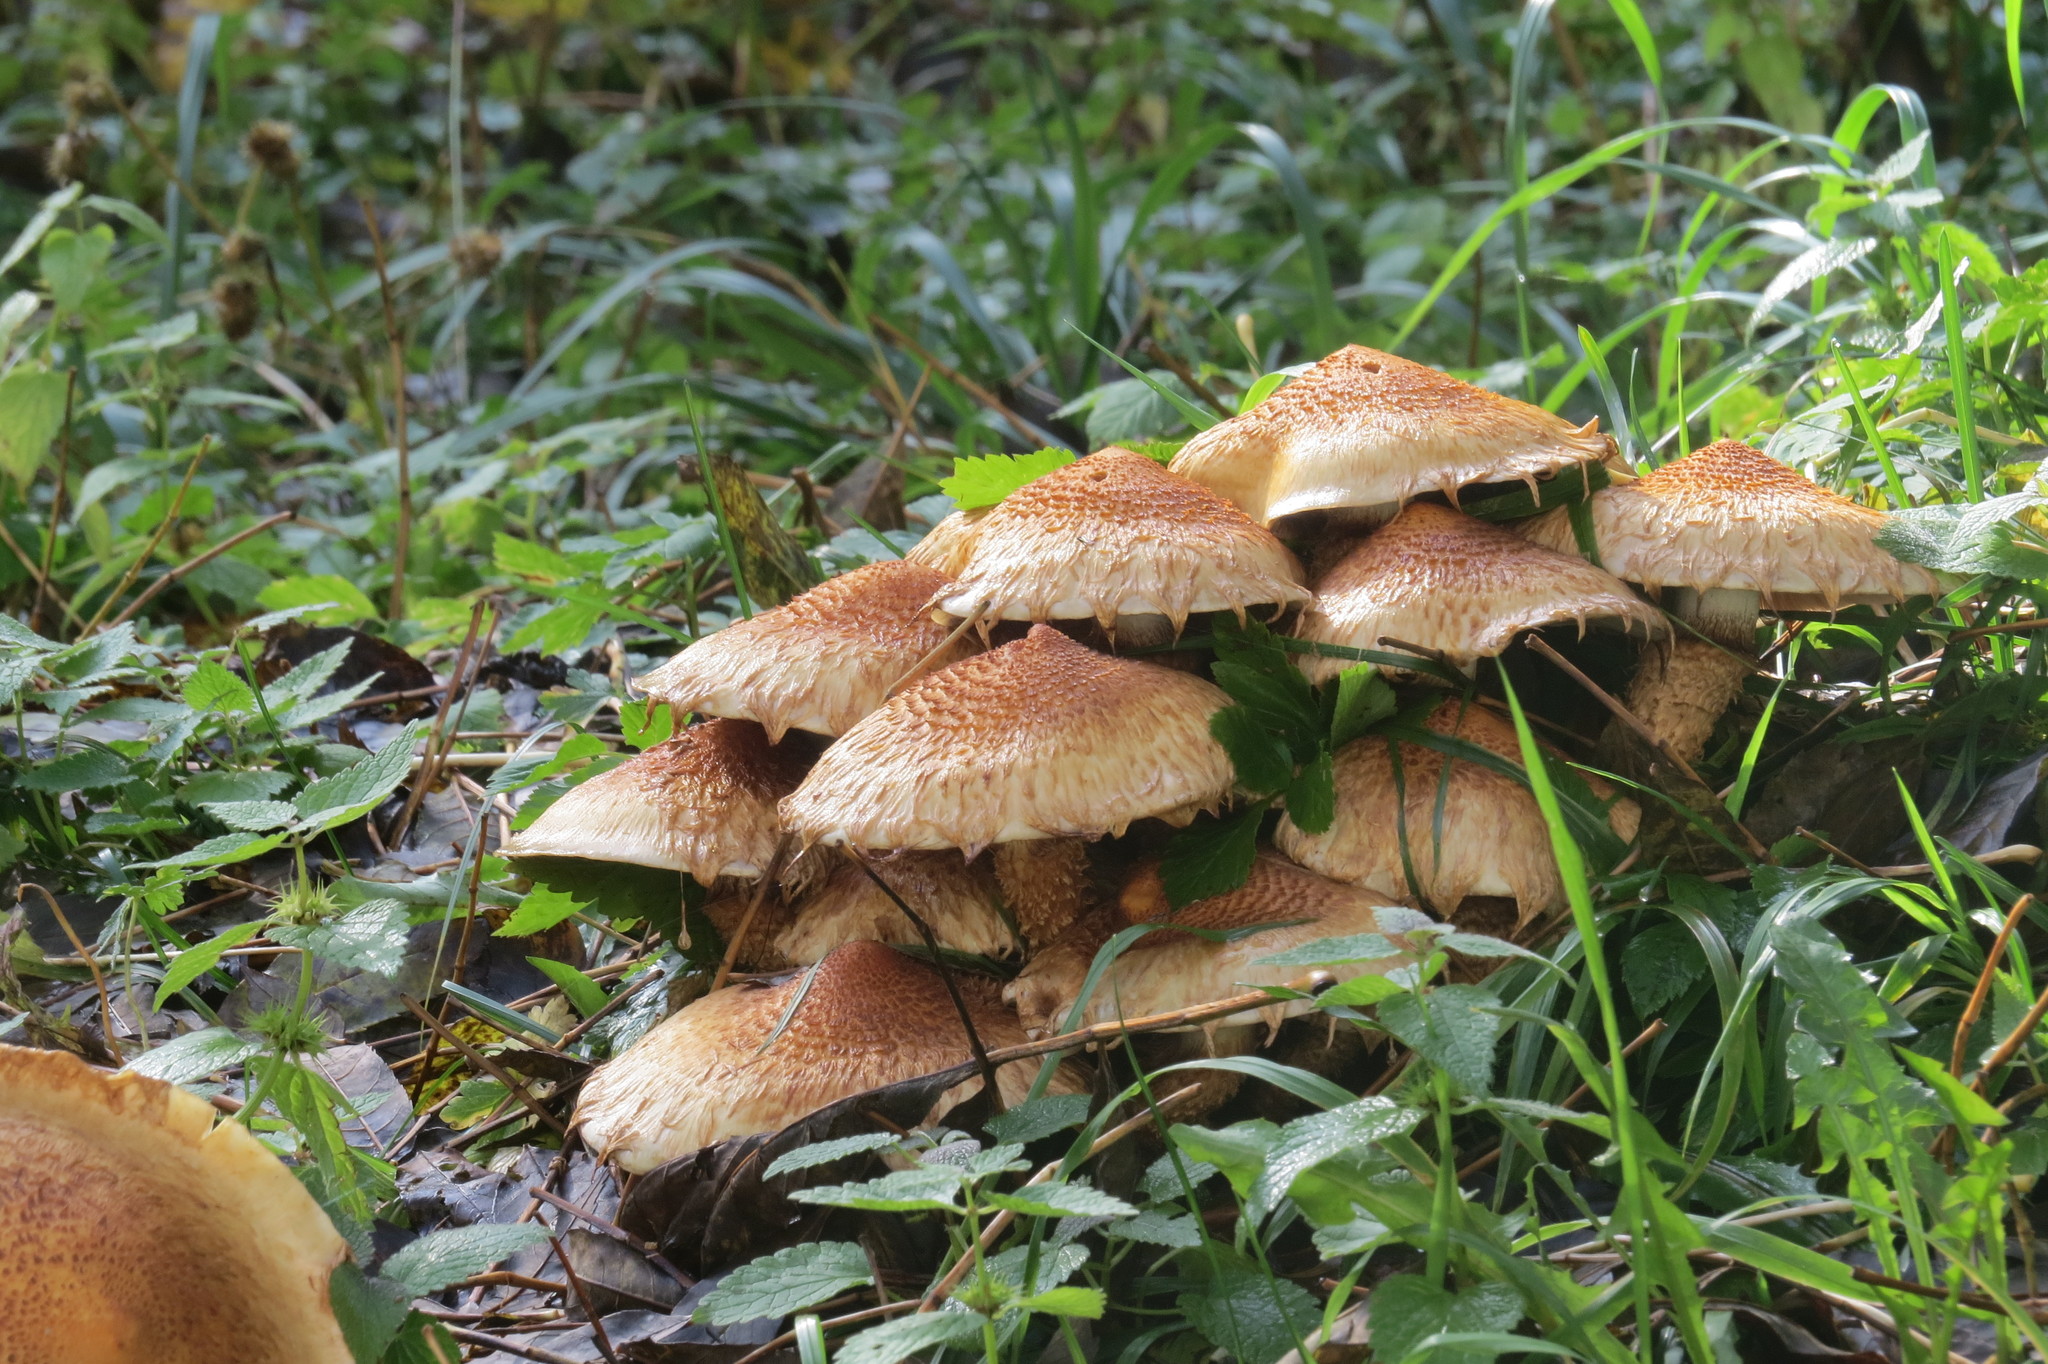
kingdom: Fungi
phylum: Basidiomycota
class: Agaricomycetes
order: Agaricales
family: Strophariaceae
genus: Pholiota
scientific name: Pholiota squarrosa
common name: Shaggy pholiota
